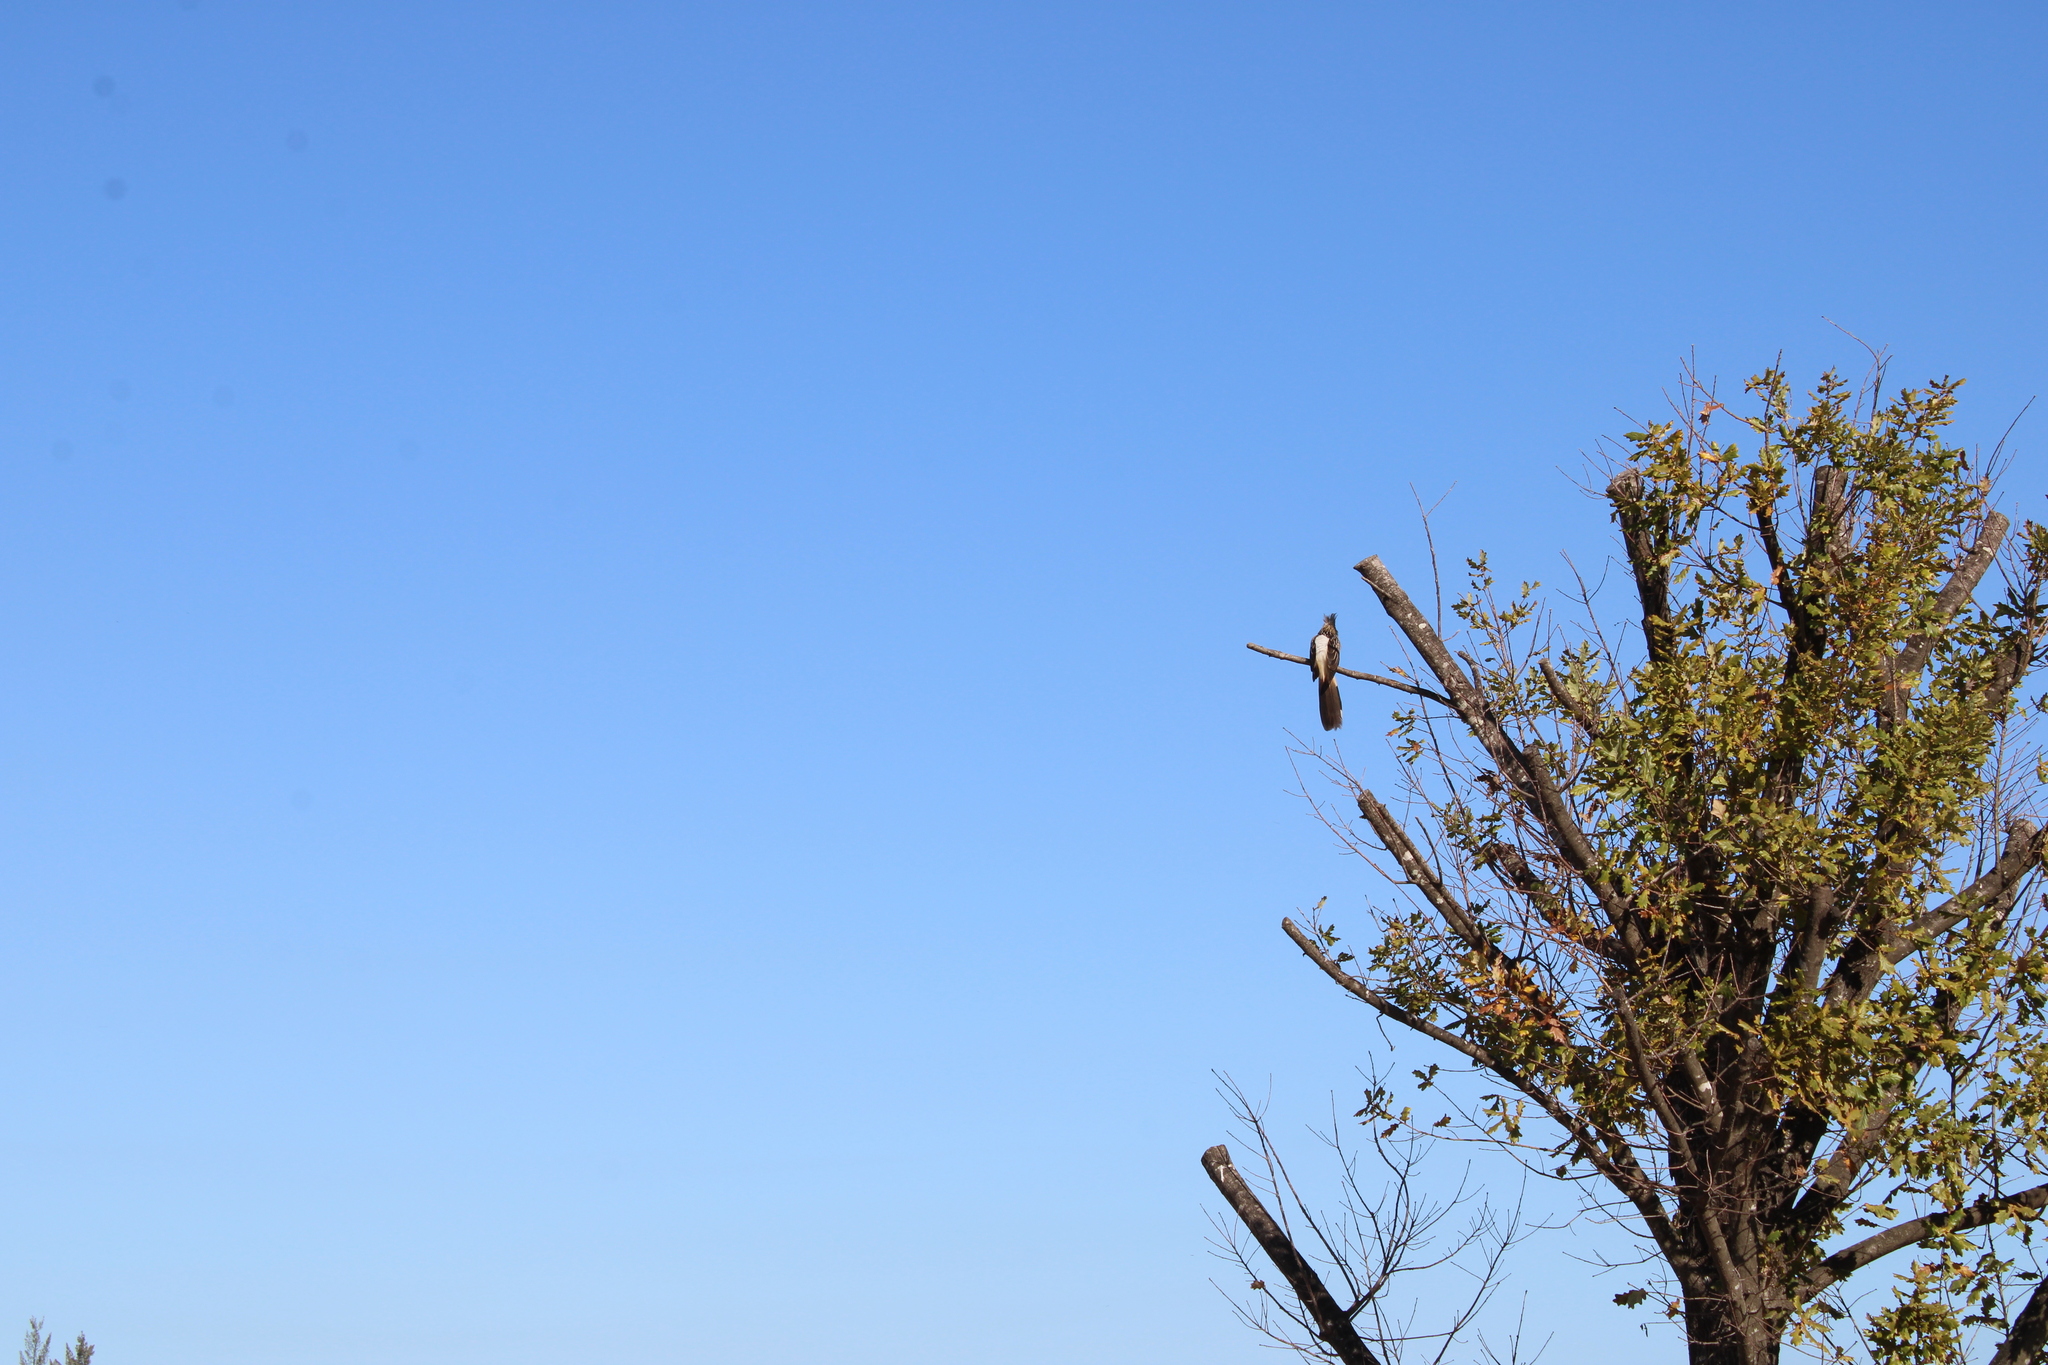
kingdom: Animalia
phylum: Chordata
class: Aves
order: Cuculiformes
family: Cuculidae
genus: Guira
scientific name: Guira guira
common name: Guira cuckoo
